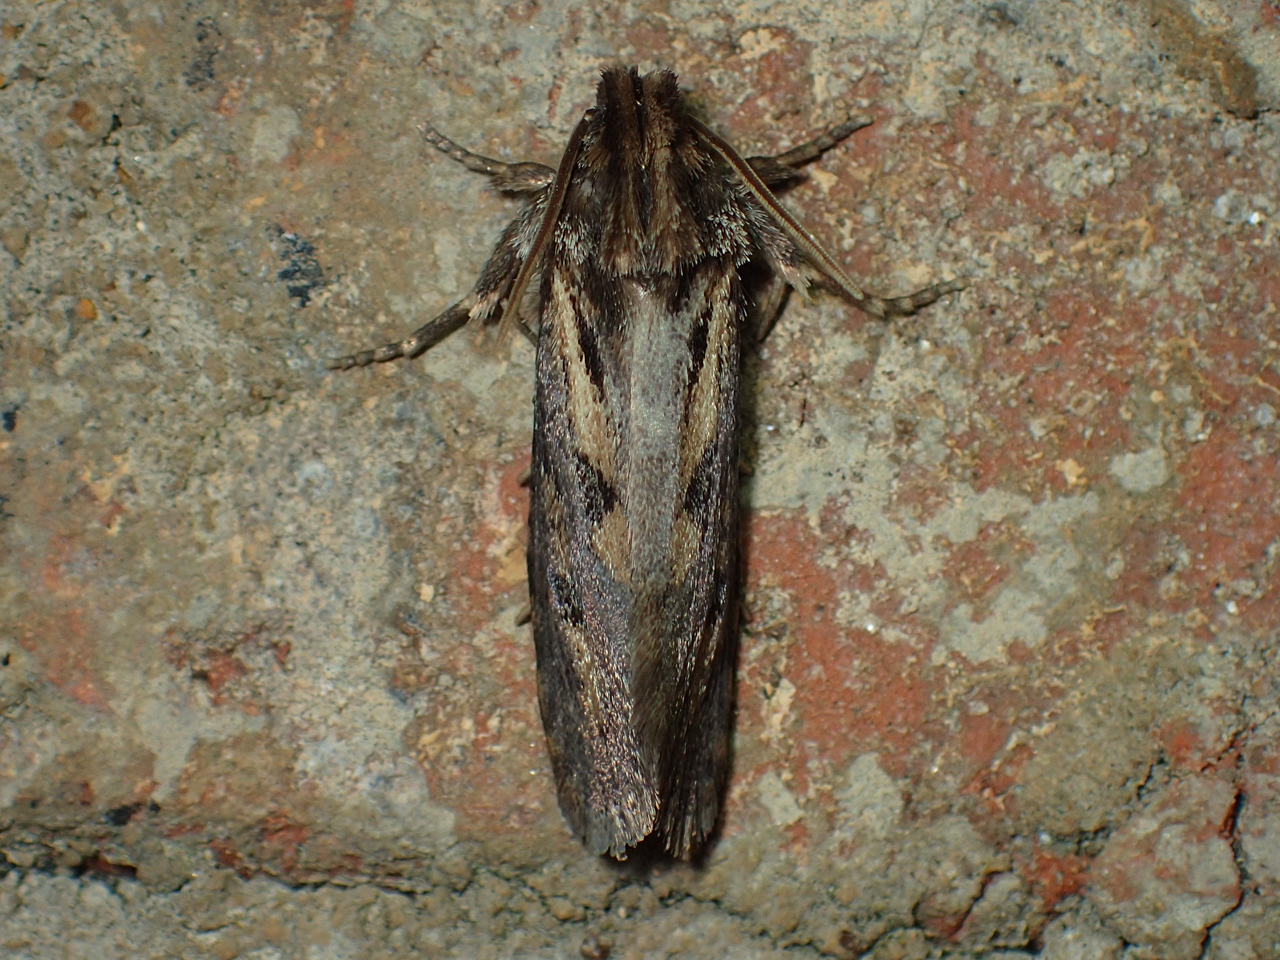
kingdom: Animalia
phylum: Arthropoda
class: Insecta
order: Lepidoptera
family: Tineidae
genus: Acrolophus
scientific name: Acrolophus popeanella
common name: Clemens' grass tubeworm moth
